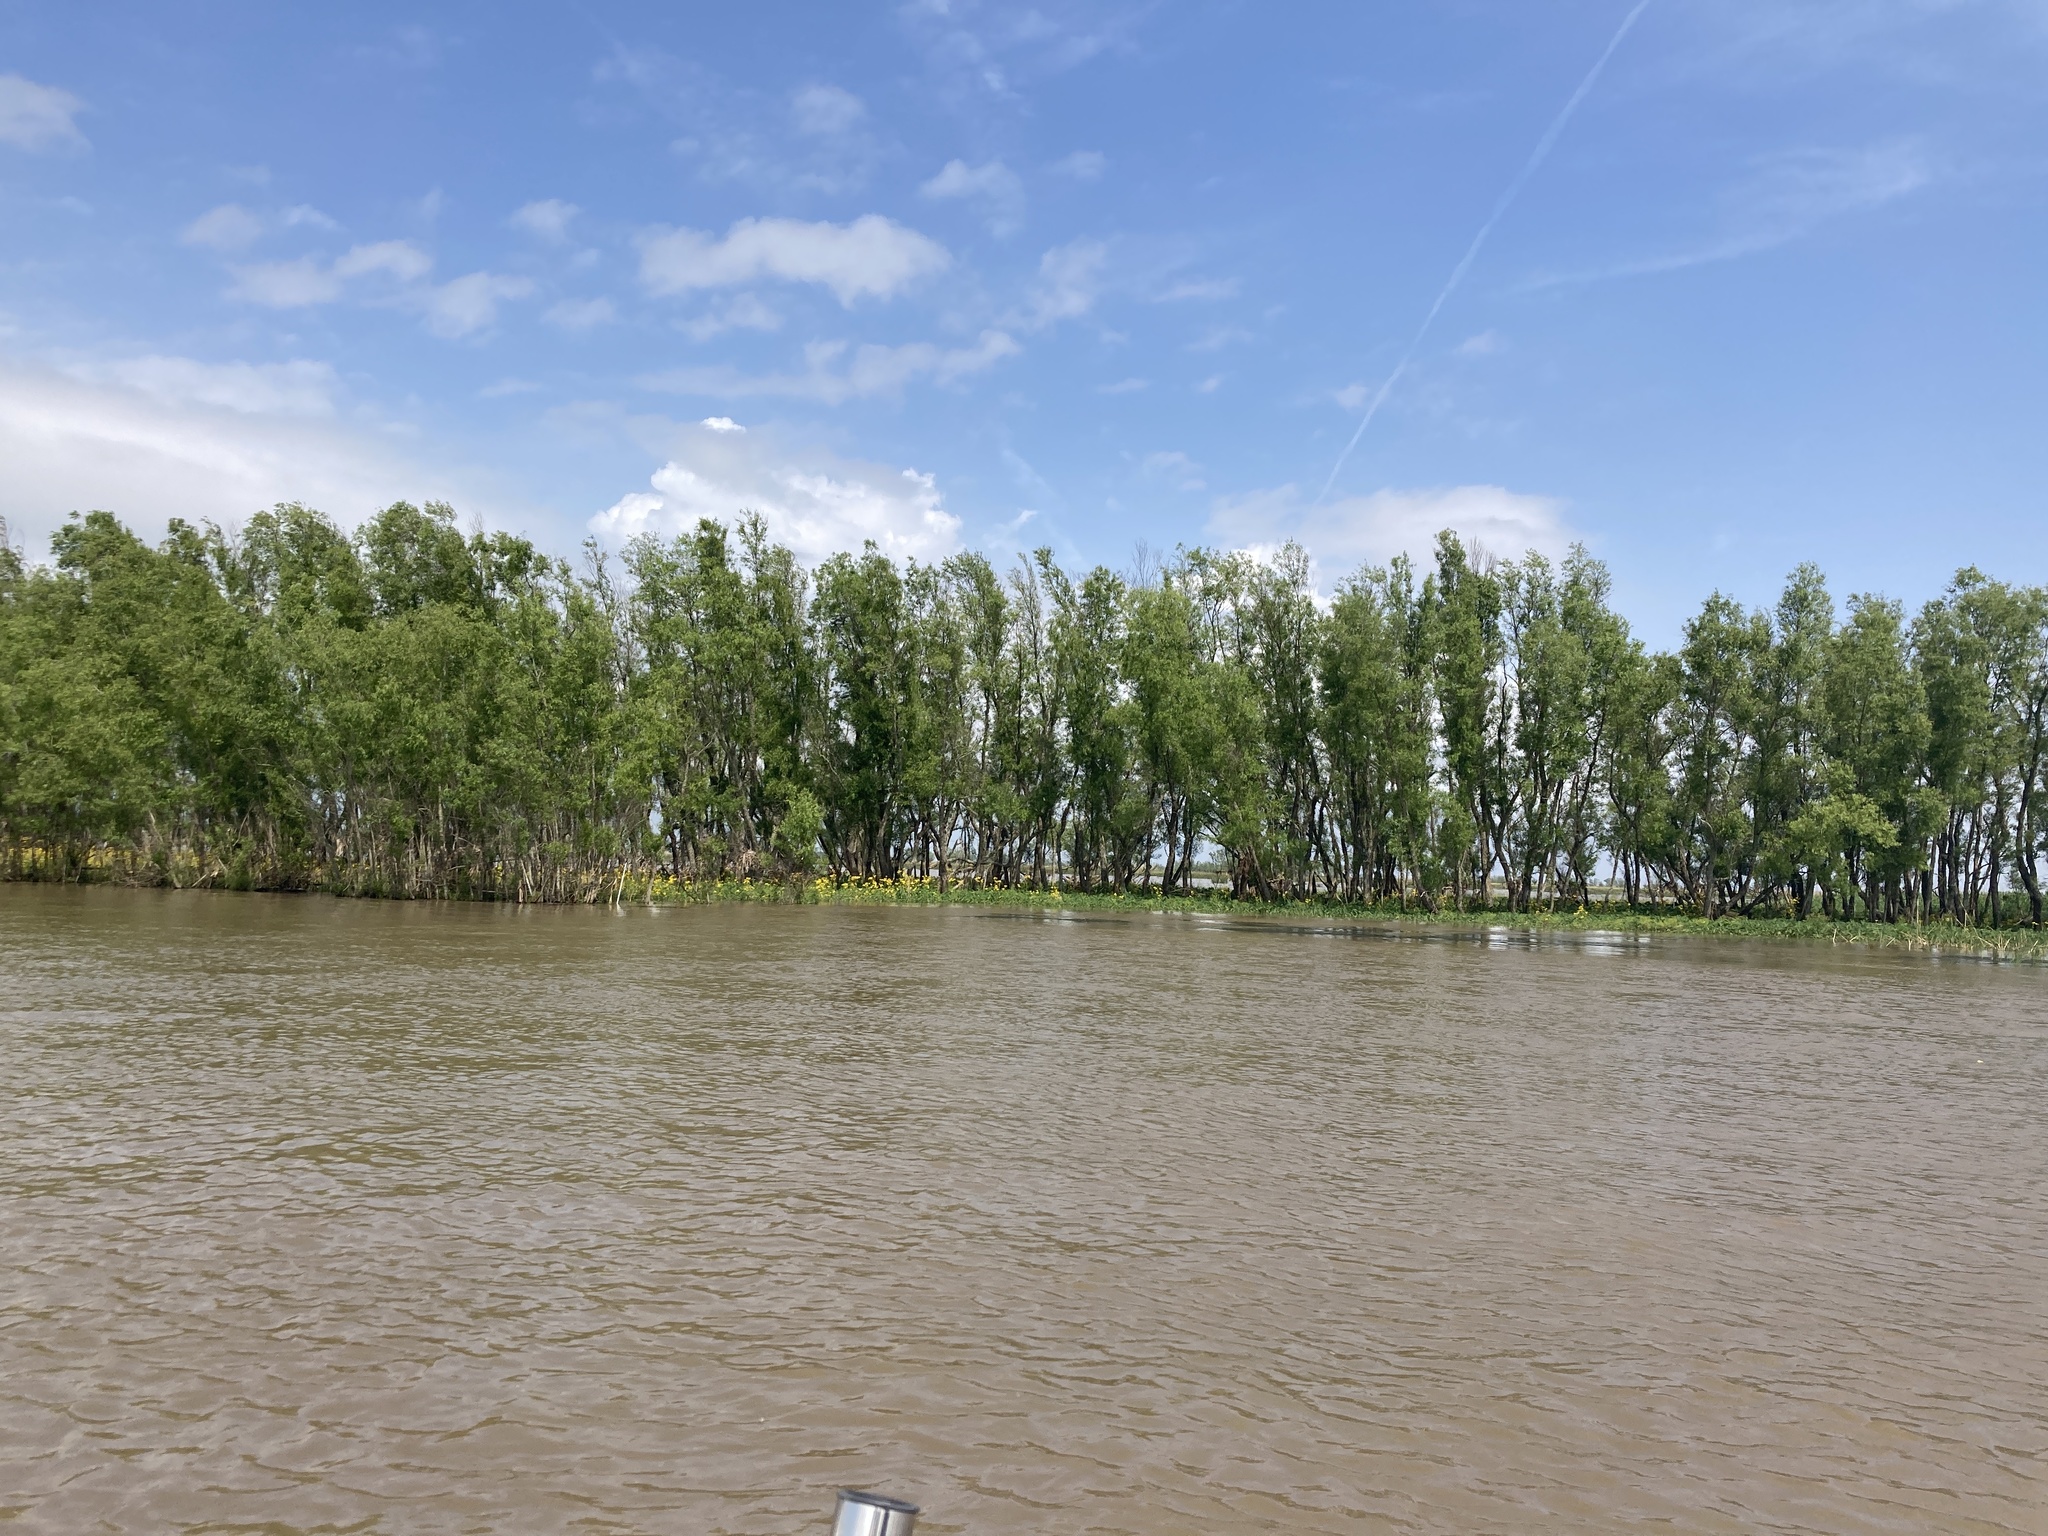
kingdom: Plantae
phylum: Tracheophyta
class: Magnoliopsida
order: Malpighiales
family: Salicaceae
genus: Salix
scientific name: Salix nigra
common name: Black willow
